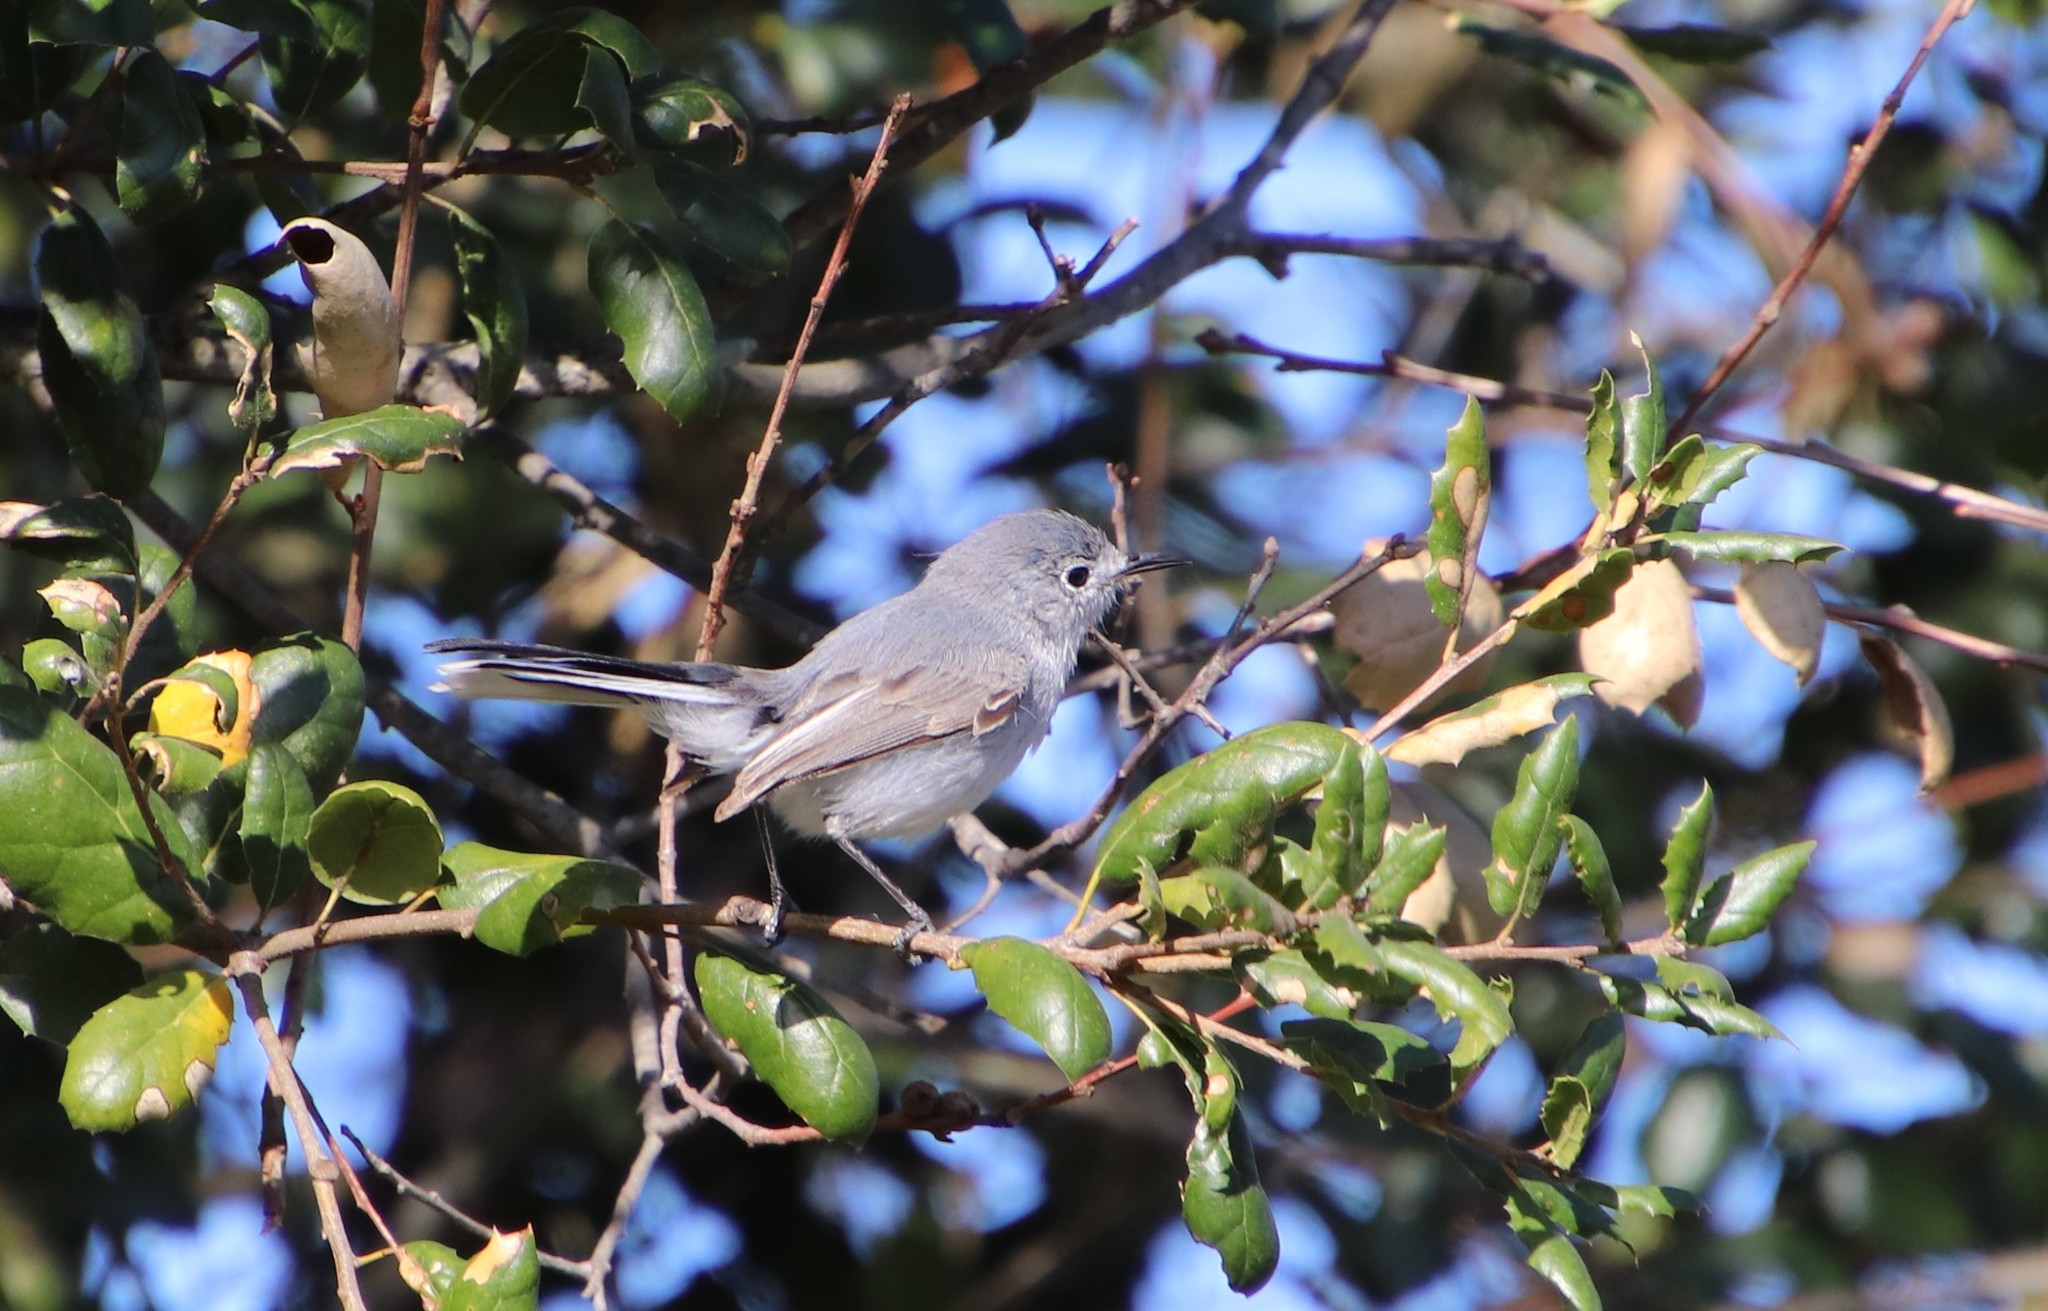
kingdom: Animalia
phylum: Chordata
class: Aves
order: Passeriformes
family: Polioptilidae
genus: Polioptila
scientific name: Polioptila caerulea
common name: Blue-gray gnatcatcher
